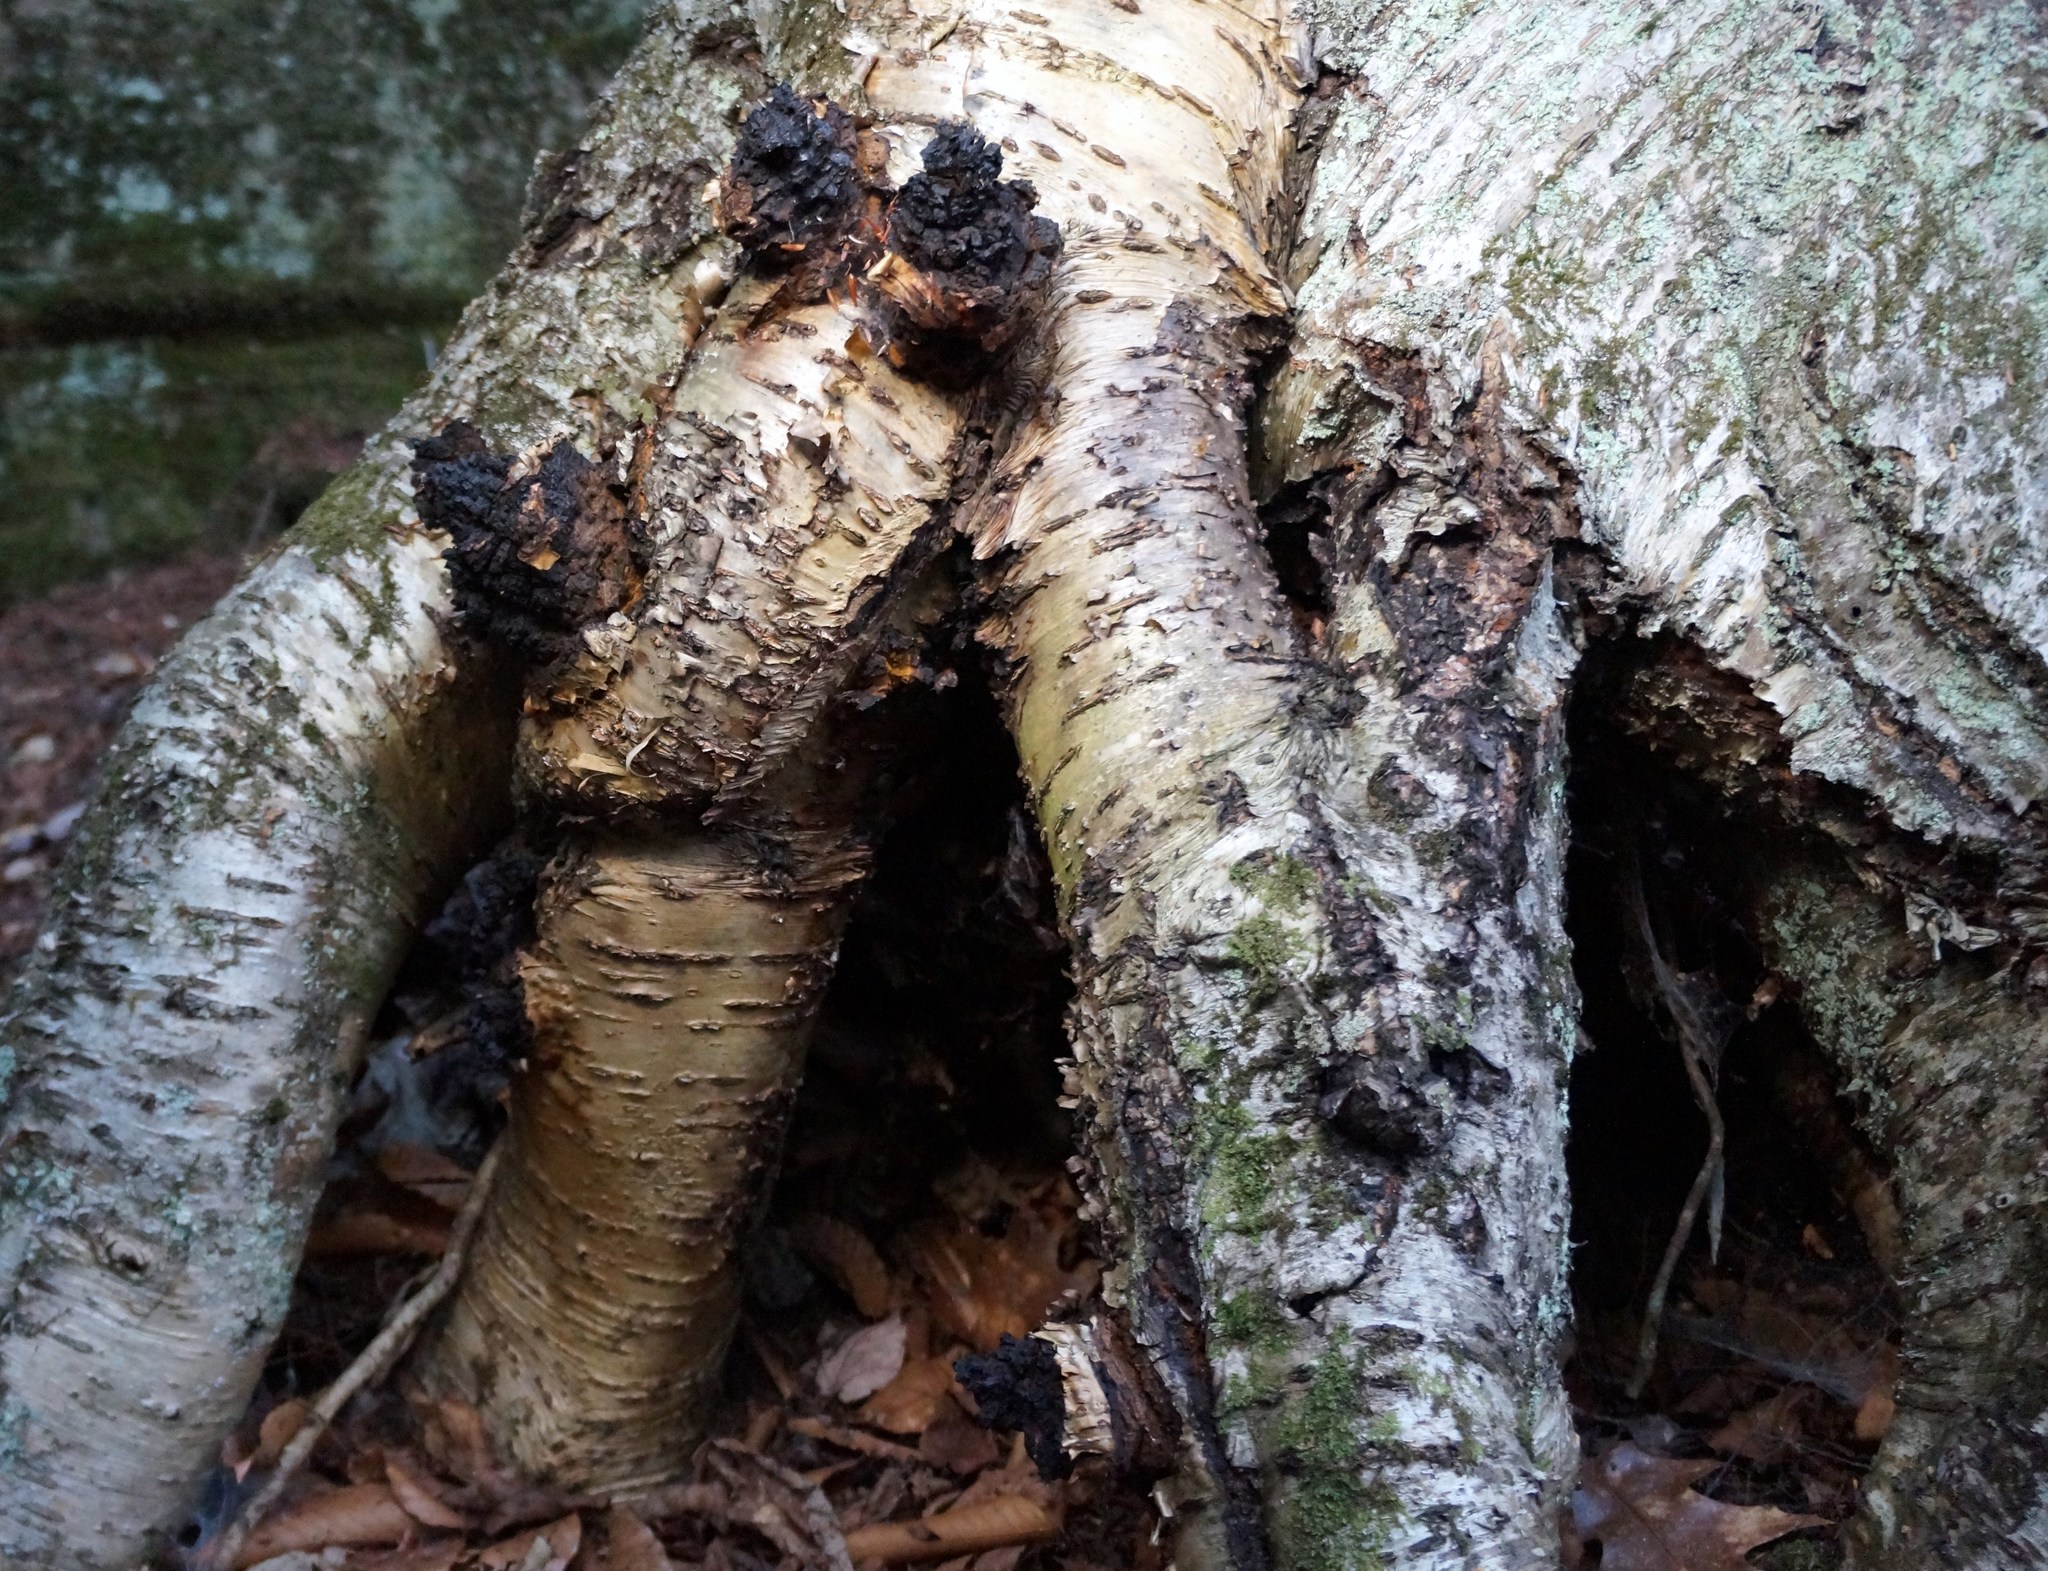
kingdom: Fungi
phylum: Basidiomycota
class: Agaricomycetes
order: Hymenochaetales
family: Hymenochaetaceae
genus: Inonotus
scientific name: Inonotus obliquus
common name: Chaga
